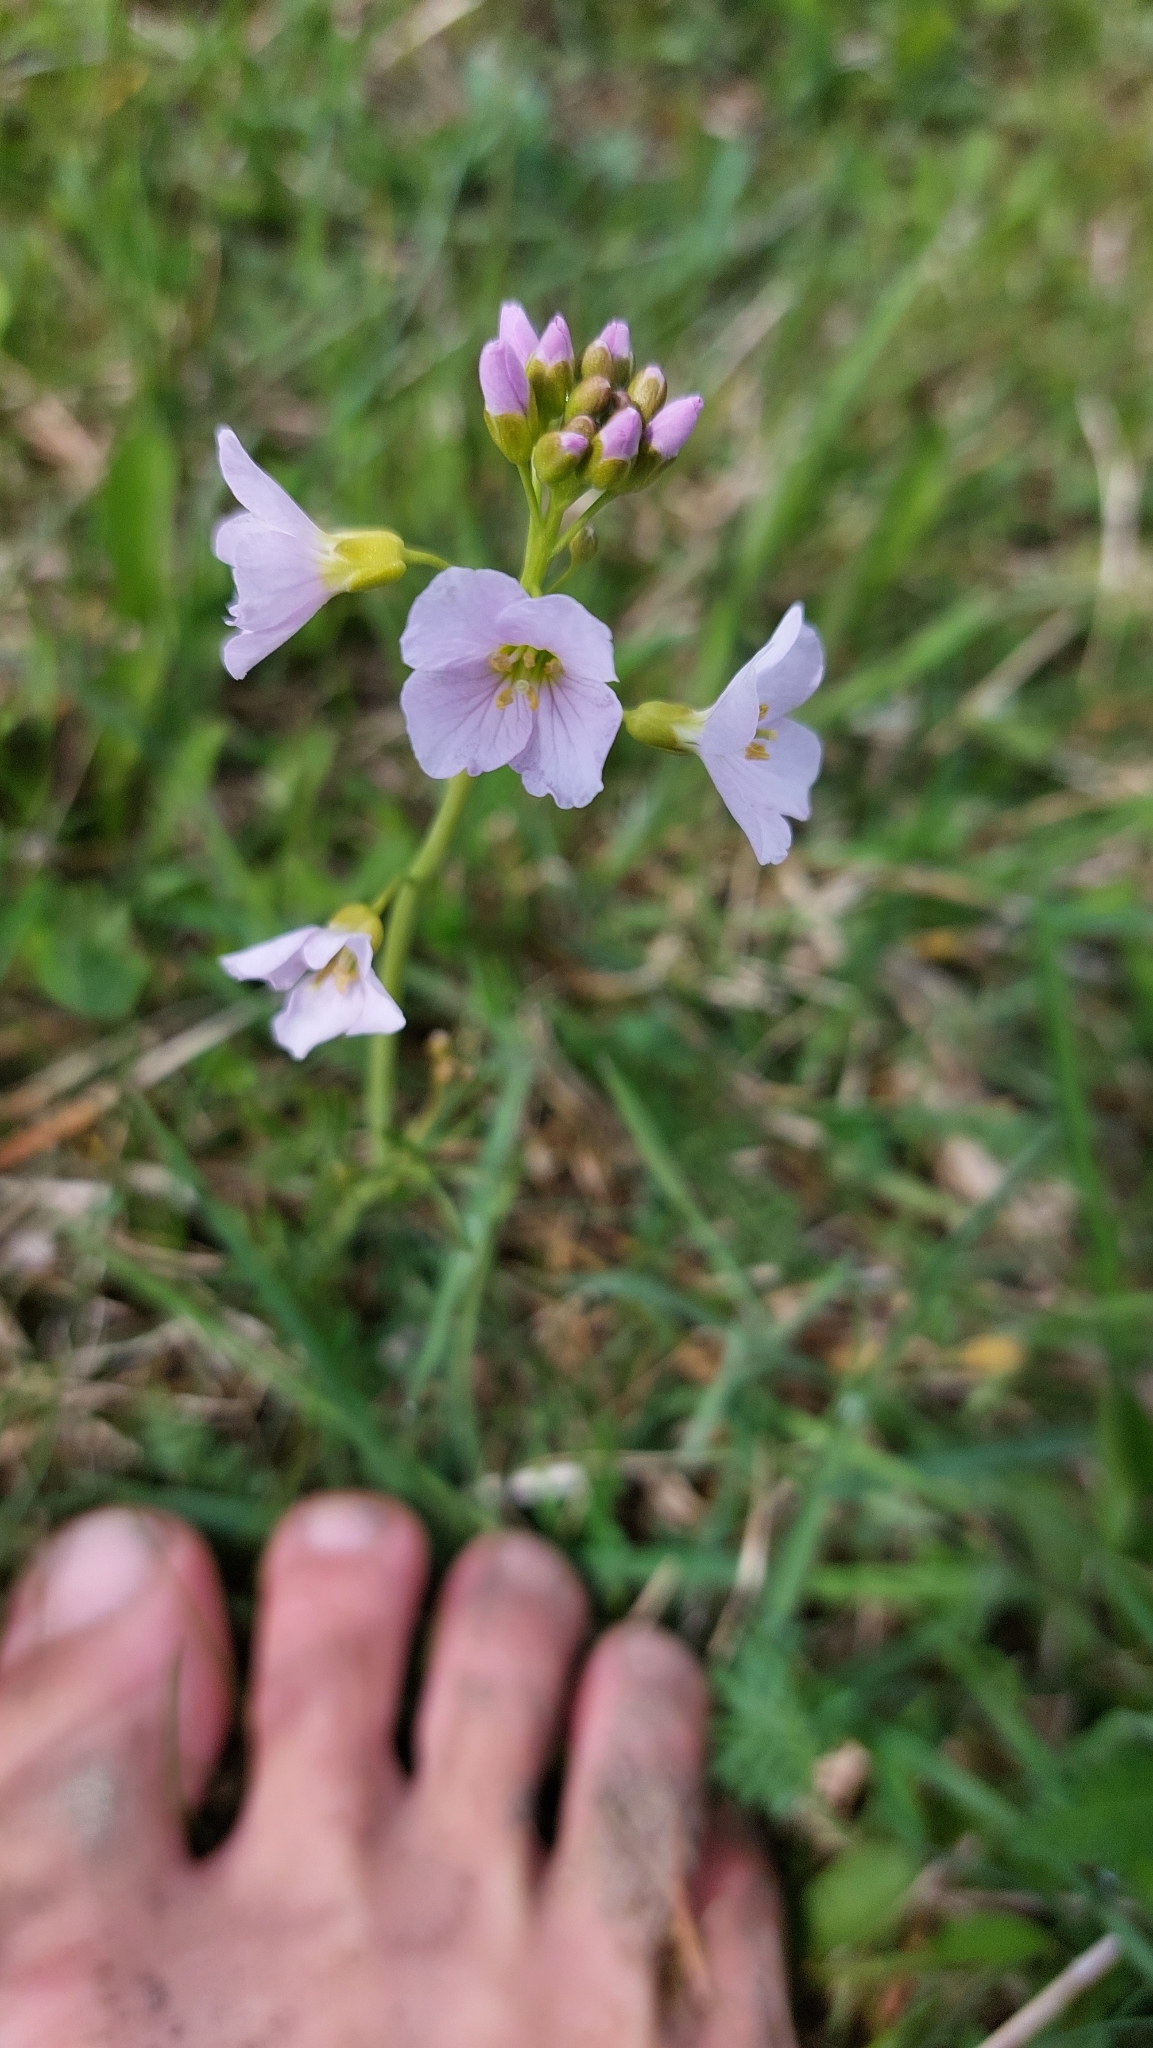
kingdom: Plantae
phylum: Tracheophyta
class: Magnoliopsida
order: Brassicales
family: Brassicaceae
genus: Cardamine
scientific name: Cardamine pratensis
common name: Cuckoo flower
